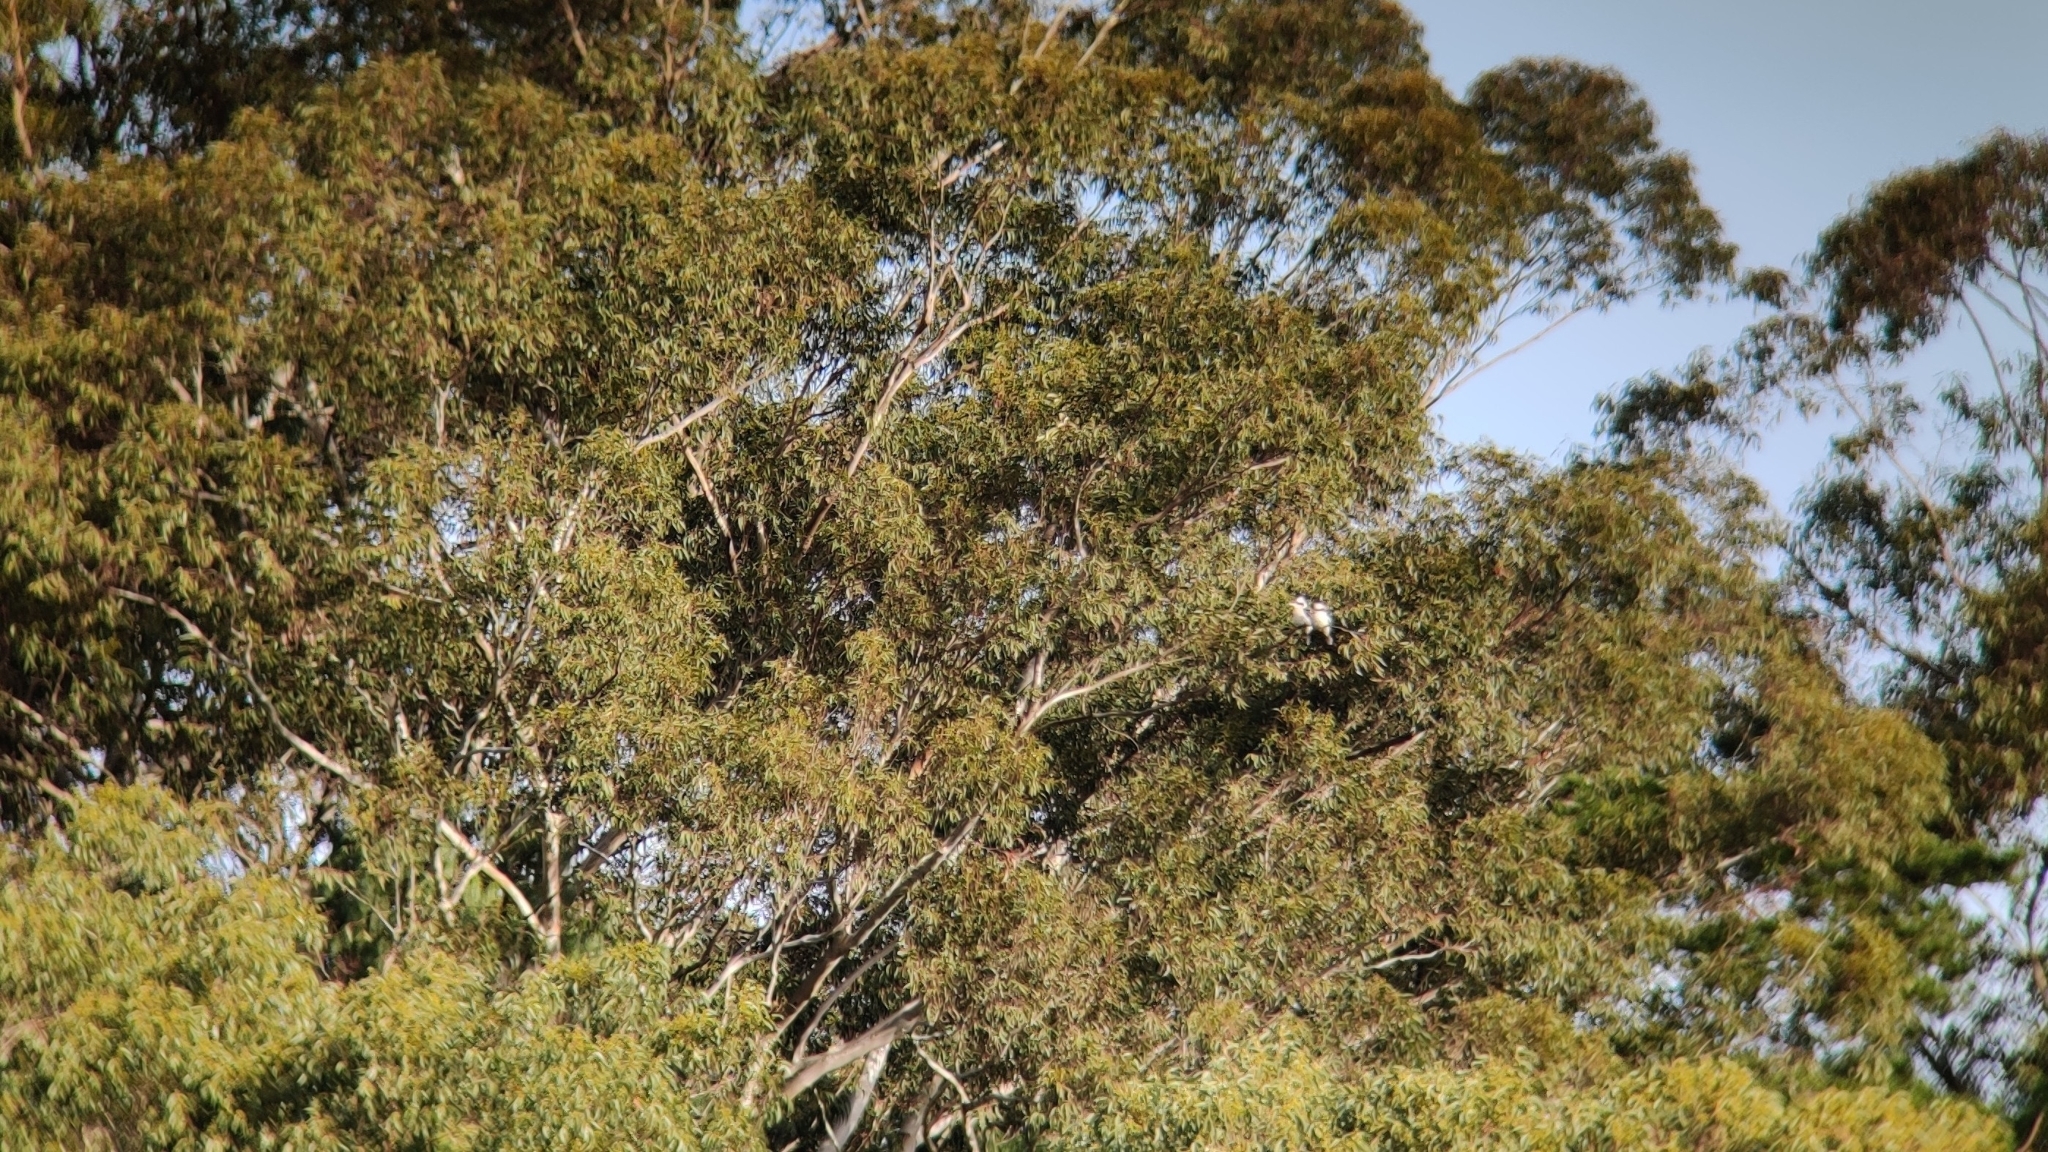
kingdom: Animalia
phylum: Chordata
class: Aves
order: Coraciiformes
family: Alcedinidae
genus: Dacelo
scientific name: Dacelo novaeguineae
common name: Laughing kookaburra
